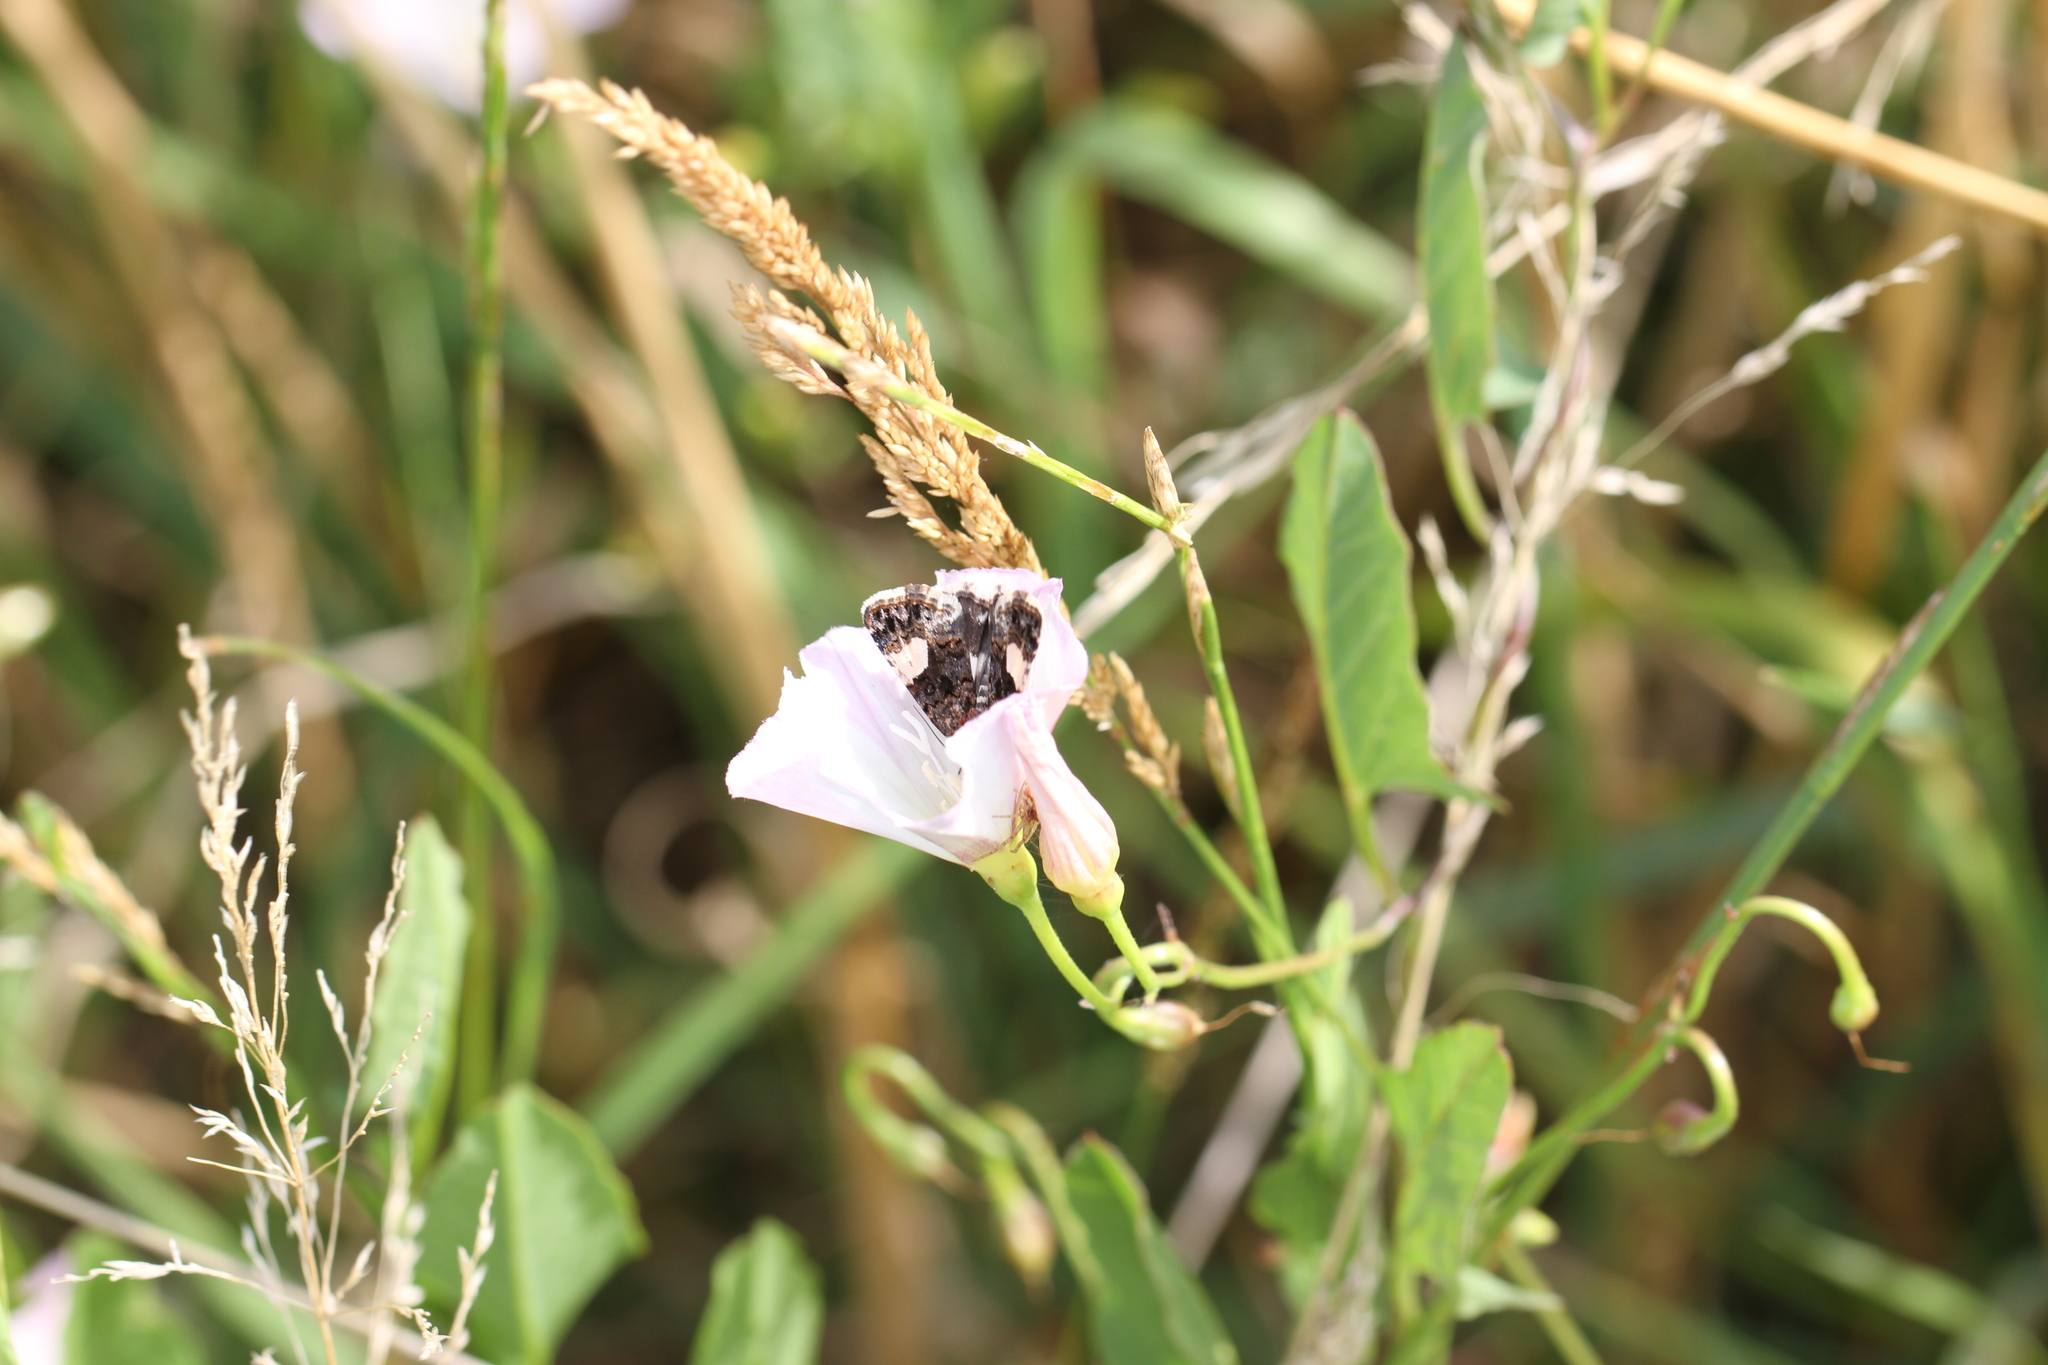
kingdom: Animalia
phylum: Arthropoda
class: Insecta
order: Lepidoptera
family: Erebidae
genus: Tyta
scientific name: Tyta luctuosa
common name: Four-spotted
